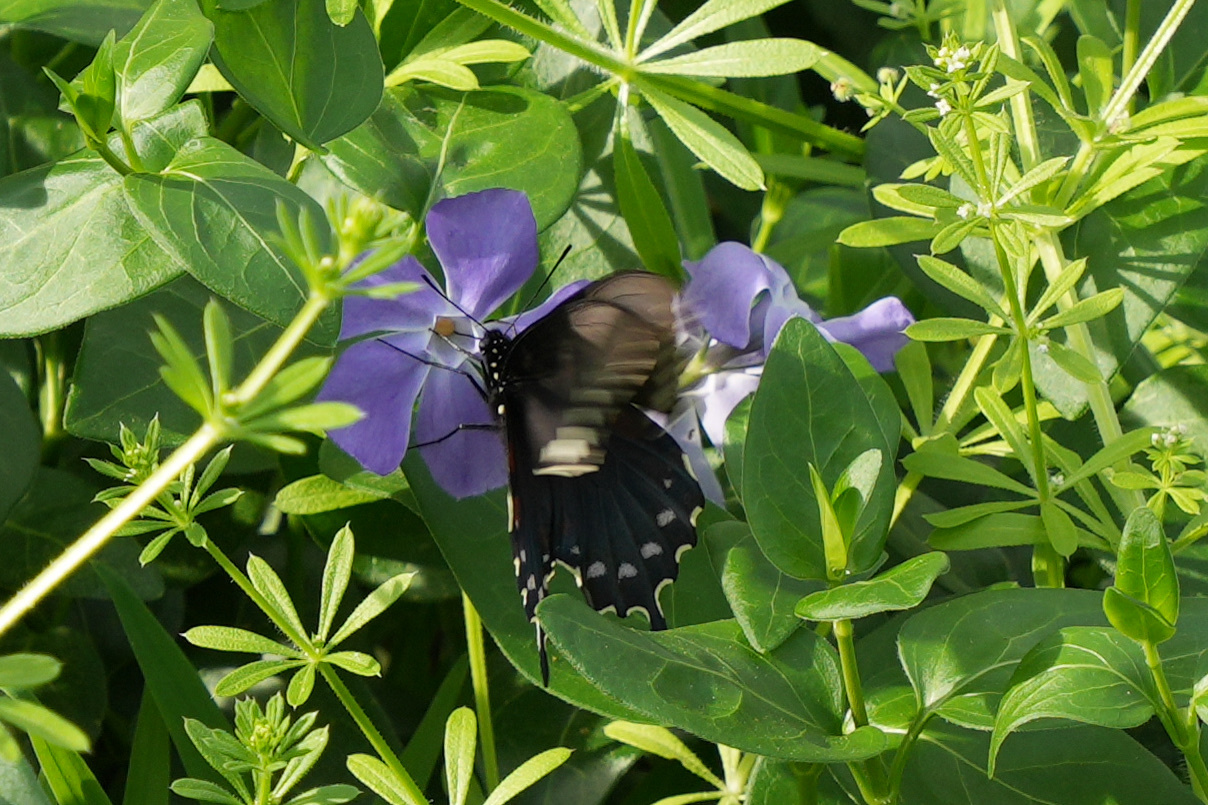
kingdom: Animalia
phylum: Arthropoda
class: Insecta
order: Lepidoptera
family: Papilionidae
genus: Battus
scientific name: Battus philenor
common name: Pipevine swallowtail
